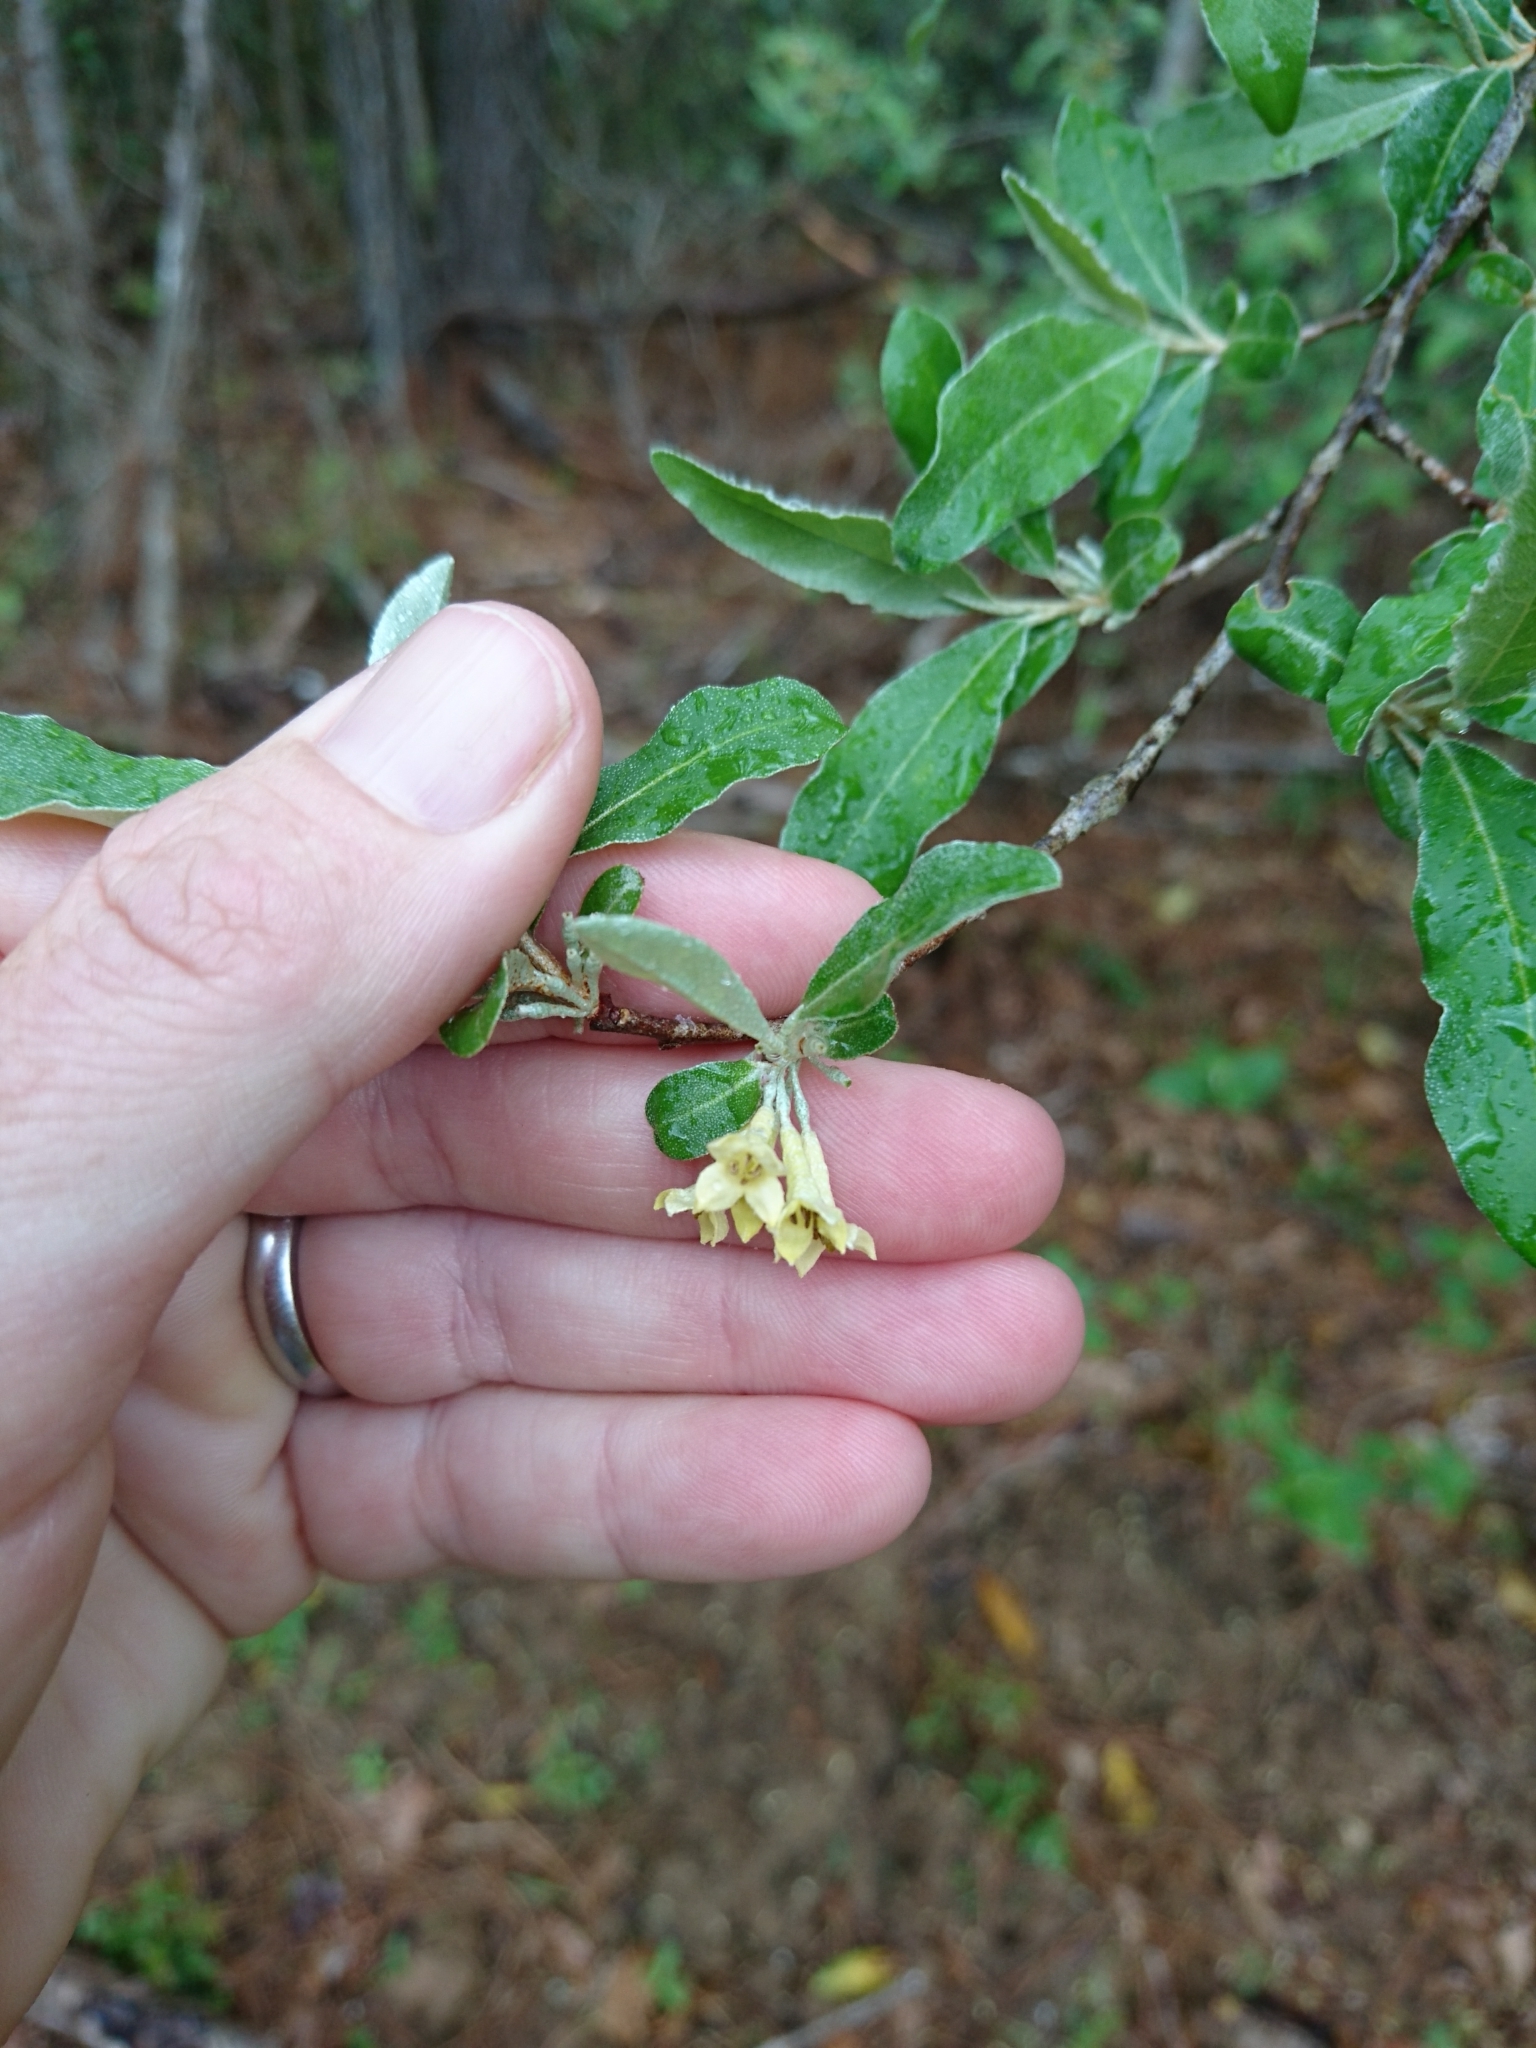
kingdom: Plantae
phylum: Tracheophyta
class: Magnoliopsida
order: Rosales
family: Elaeagnaceae
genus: Elaeagnus
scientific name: Elaeagnus umbellata
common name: Autumn olive
